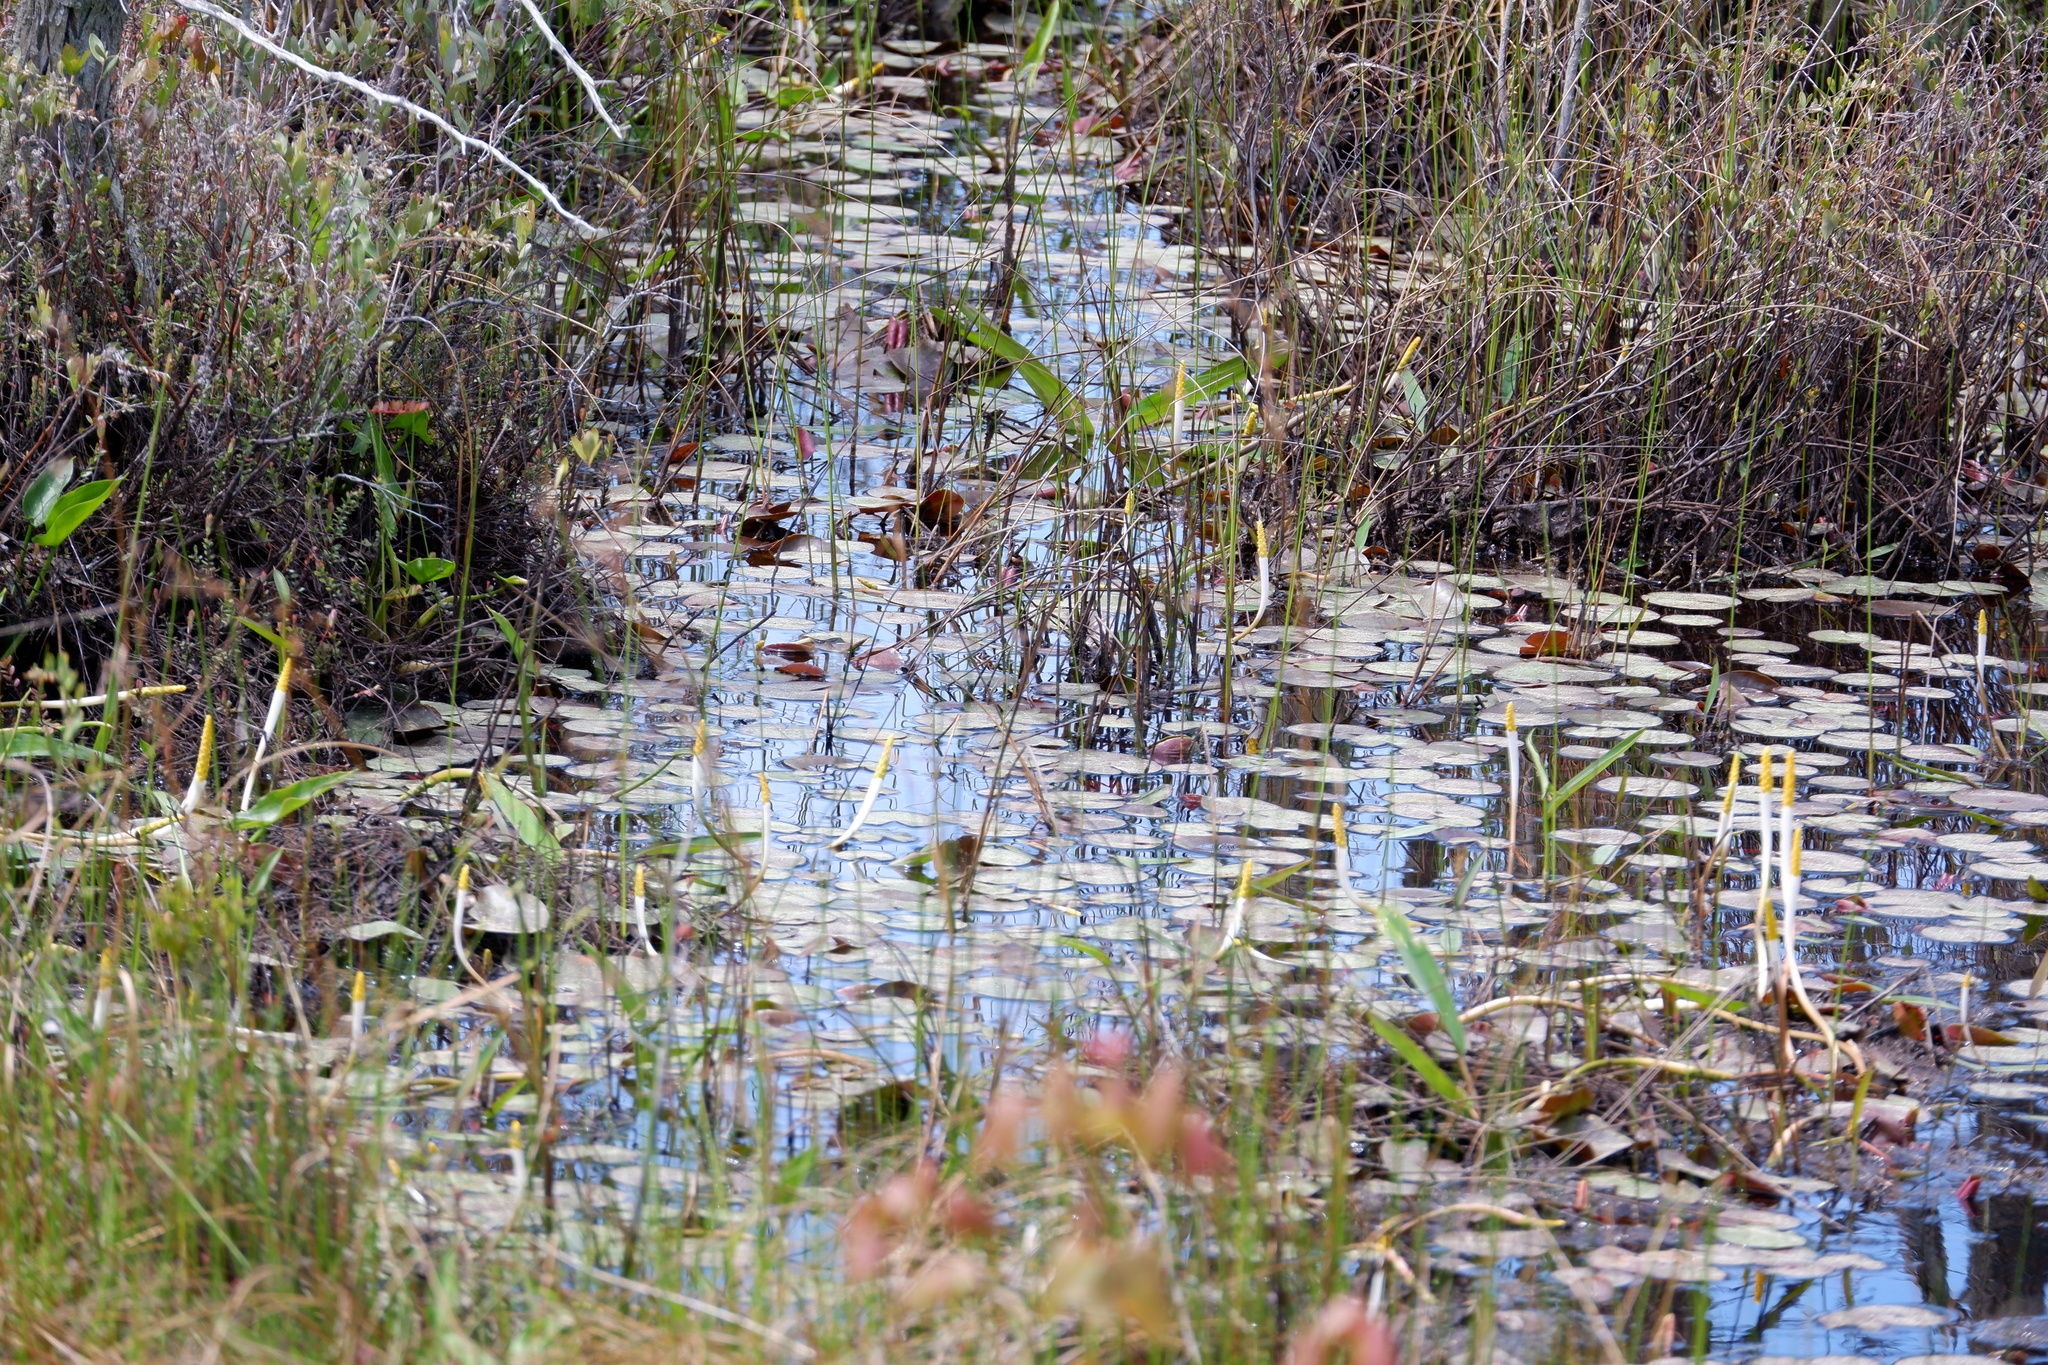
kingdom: Plantae
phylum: Tracheophyta
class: Liliopsida
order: Alismatales
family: Araceae
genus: Orontium
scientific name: Orontium aquaticum
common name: Golden-club
